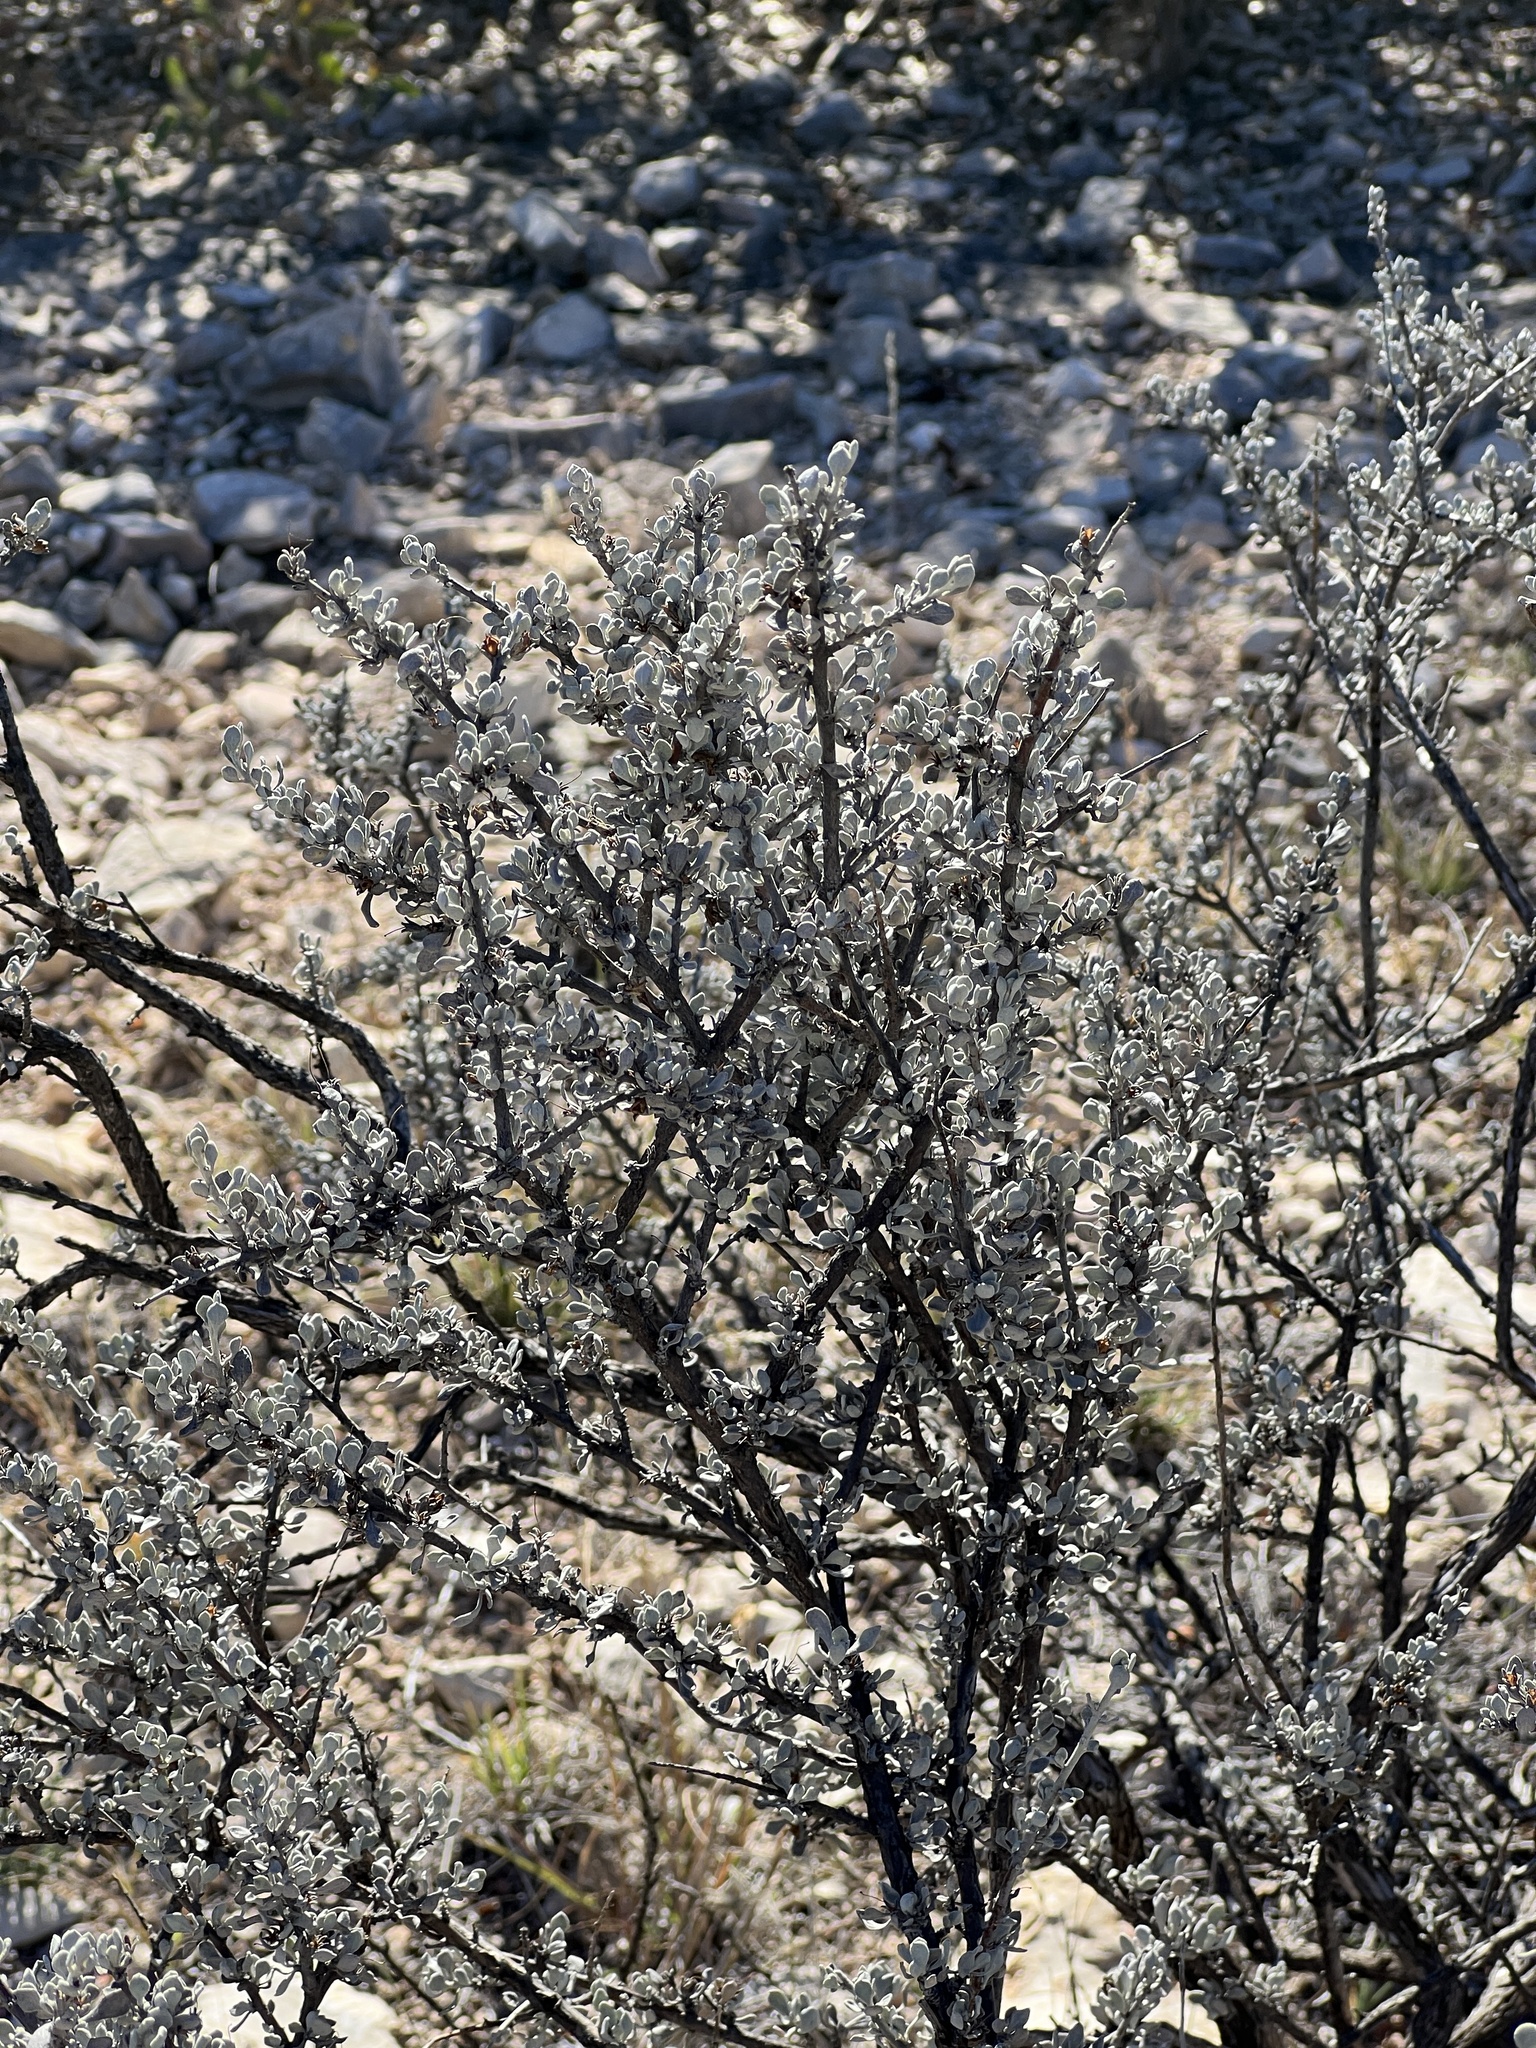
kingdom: Plantae
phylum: Tracheophyta
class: Magnoliopsida
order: Lamiales
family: Scrophulariaceae
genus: Leucophyllum
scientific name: Leucophyllum minus
